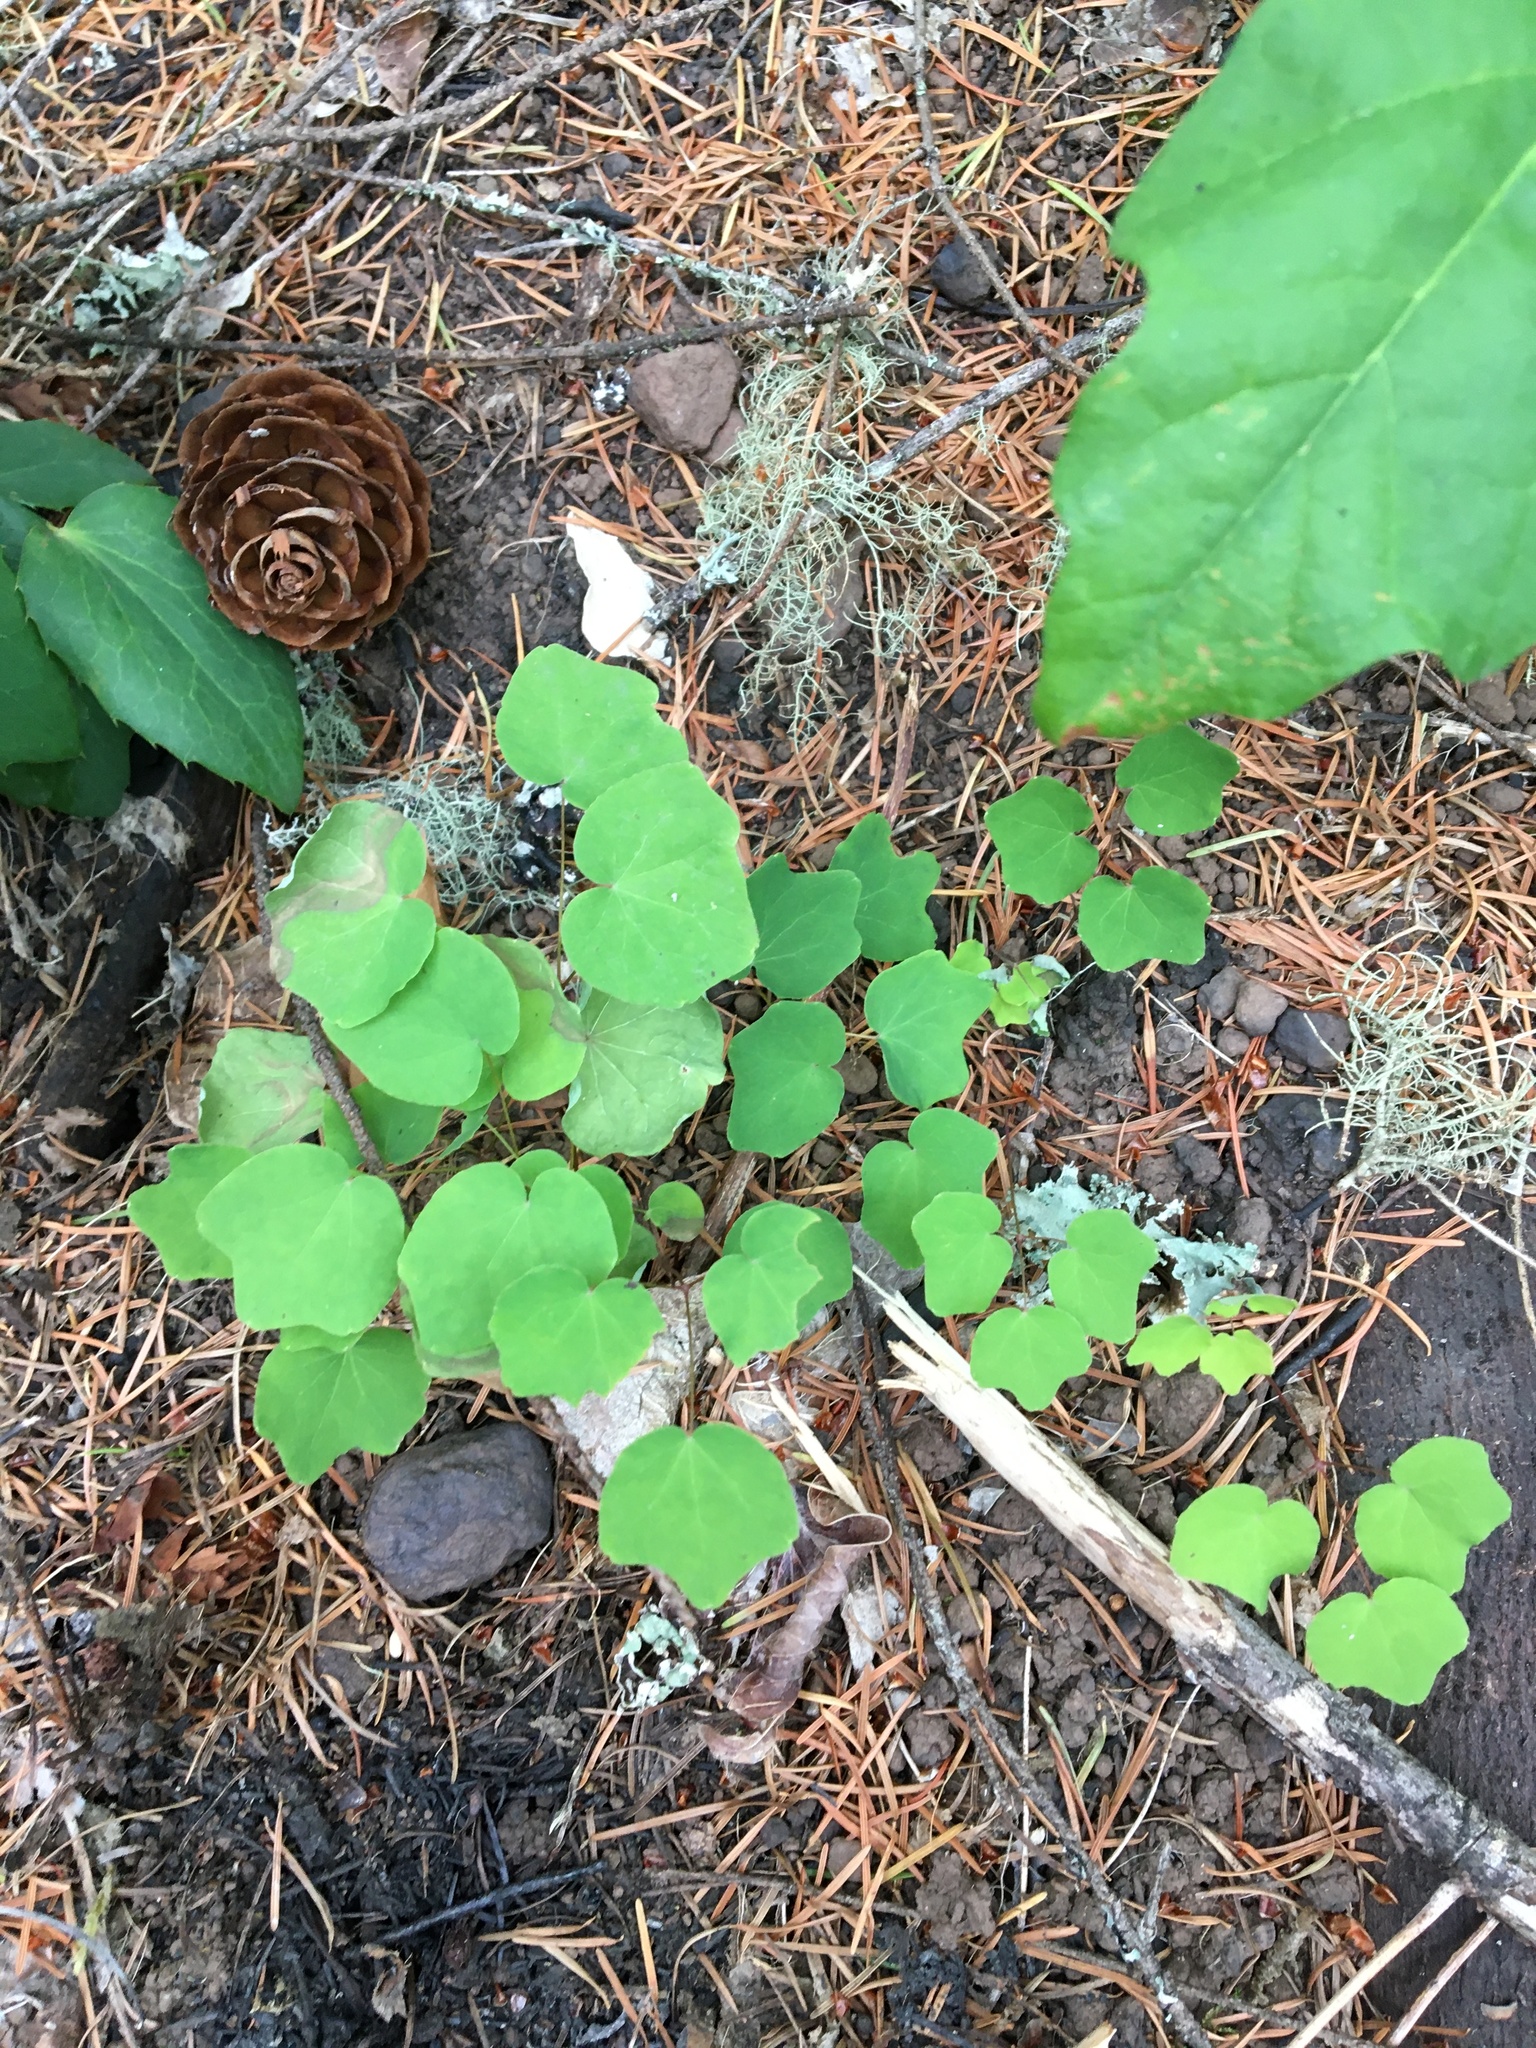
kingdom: Plantae
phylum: Tracheophyta
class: Magnoliopsida
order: Ranunculales
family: Berberidaceae
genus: Vancouveria
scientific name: Vancouveria hexandra
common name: Northern inside-out-flower
